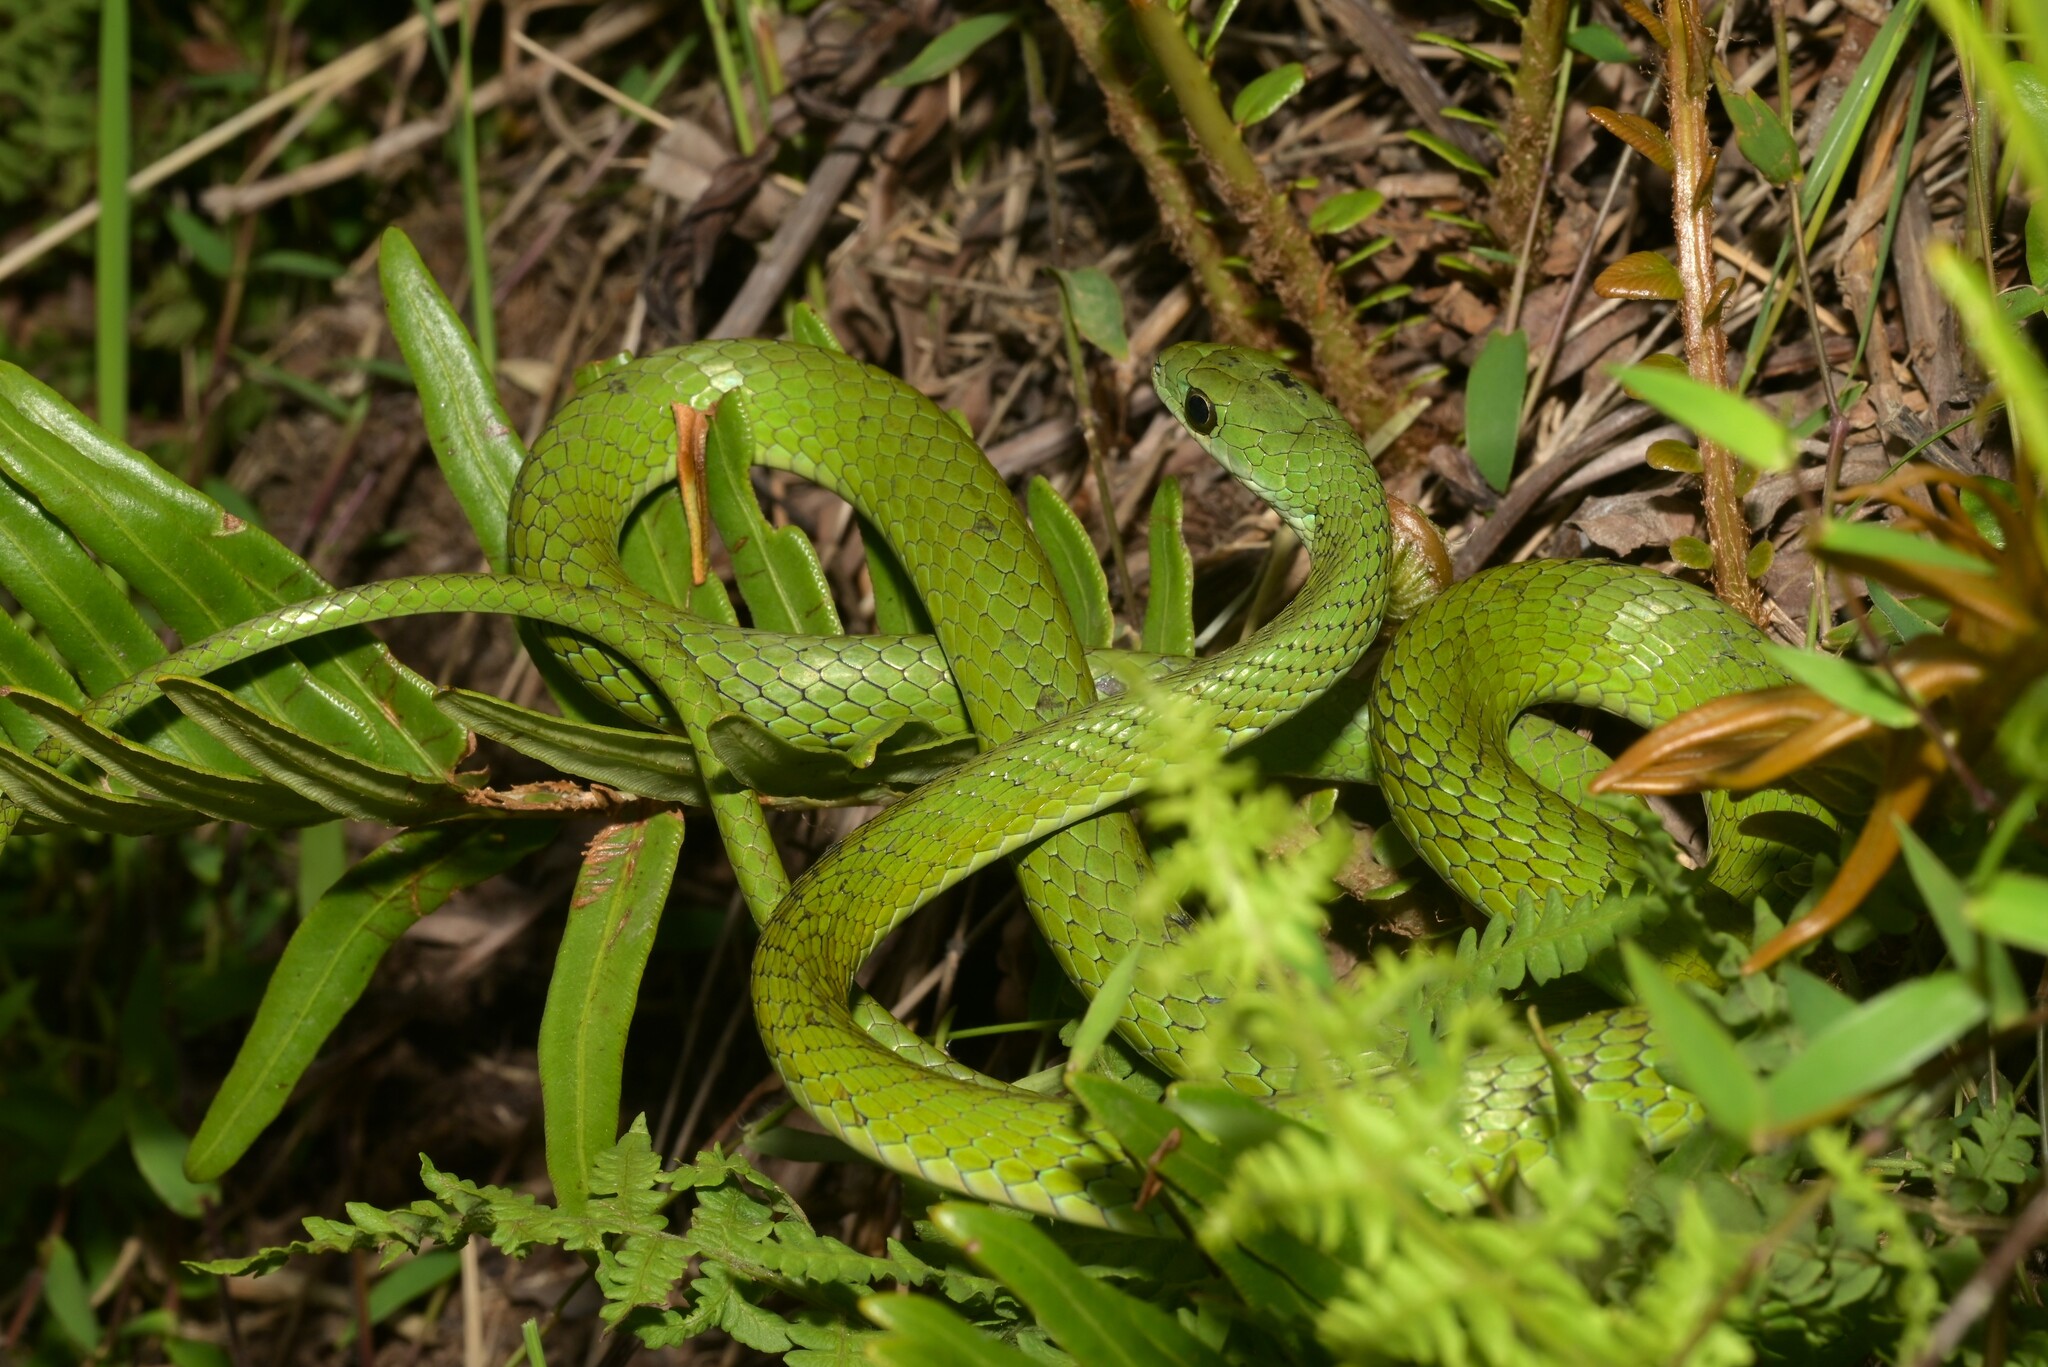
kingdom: Animalia
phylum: Chordata
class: Squamata
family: Colubridae
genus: Philothamnus
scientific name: Philothamnus angolensis
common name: Angola green snake
